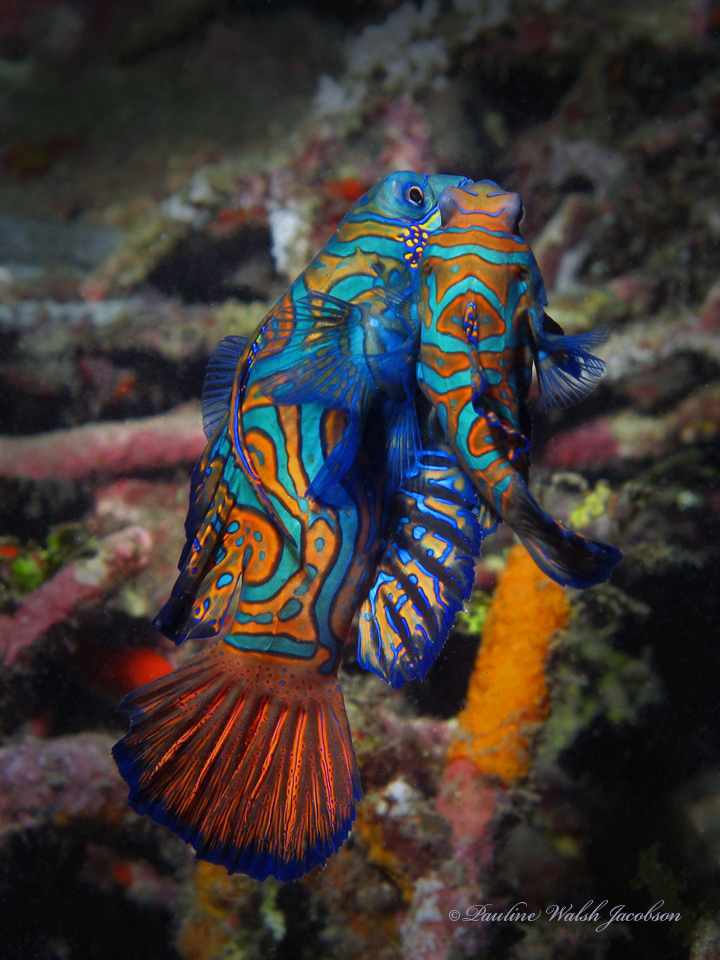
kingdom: Animalia
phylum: Chordata
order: Perciformes
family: Callionymidae
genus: Synchiropus
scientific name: Synchiropus splendidus
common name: Mandarinfish
